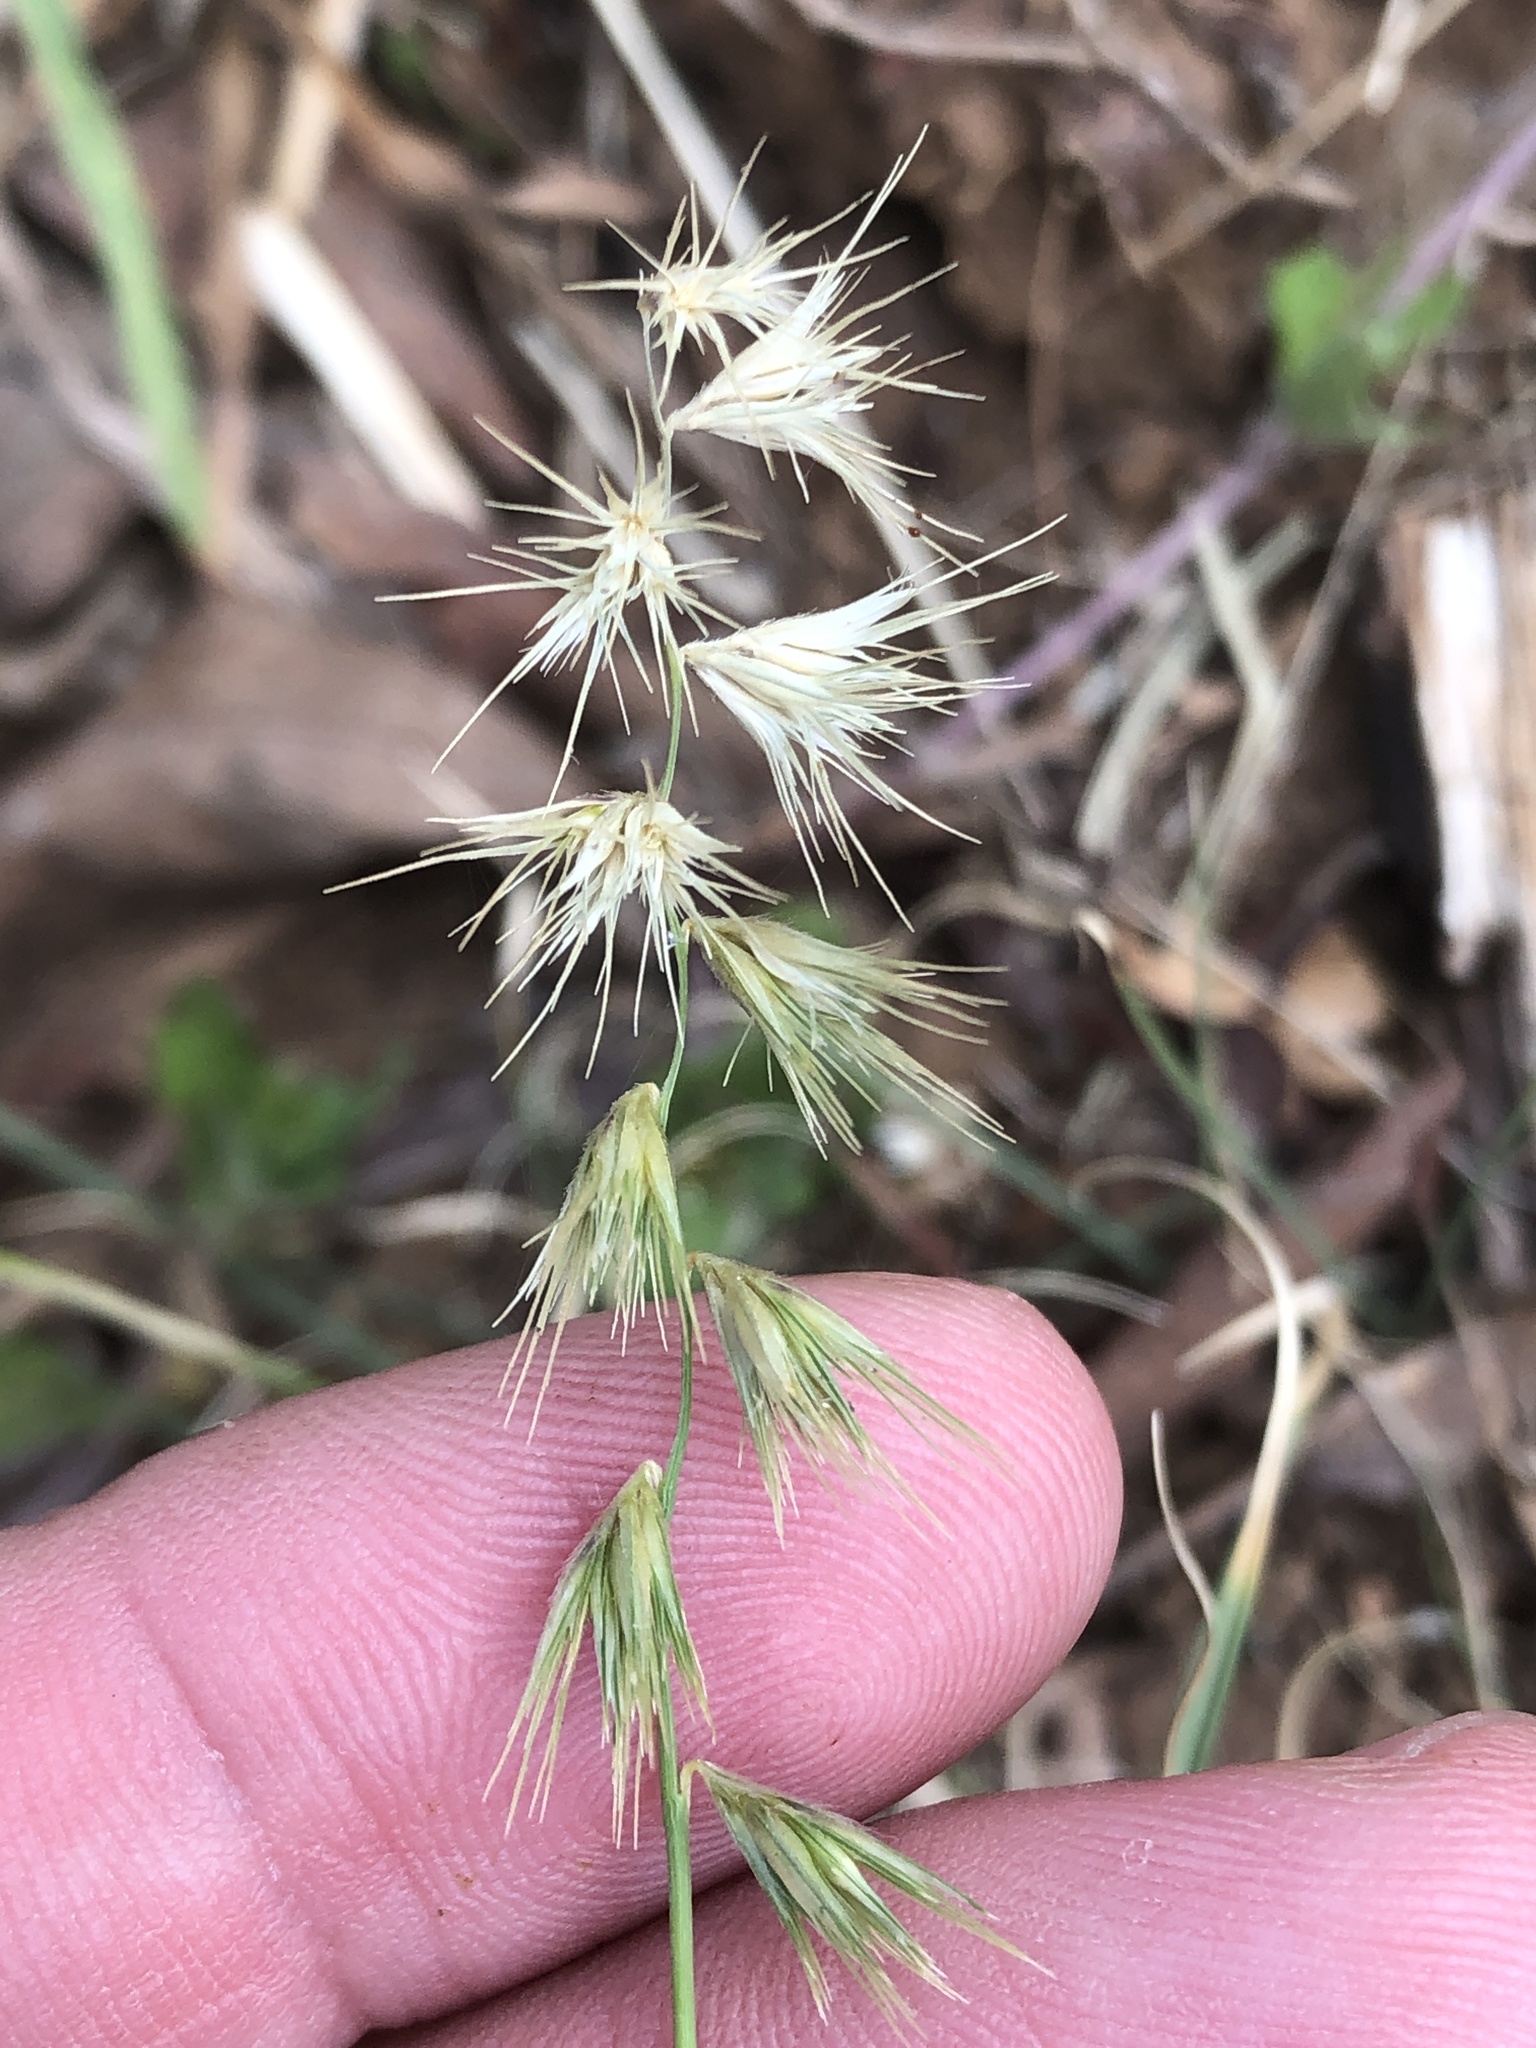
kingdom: Plantae
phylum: Tracheophyta
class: Liliopsida
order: Poales
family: Poaceae
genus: Bouteloua
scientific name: Bouteloua rigidiseta
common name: Texas grama
